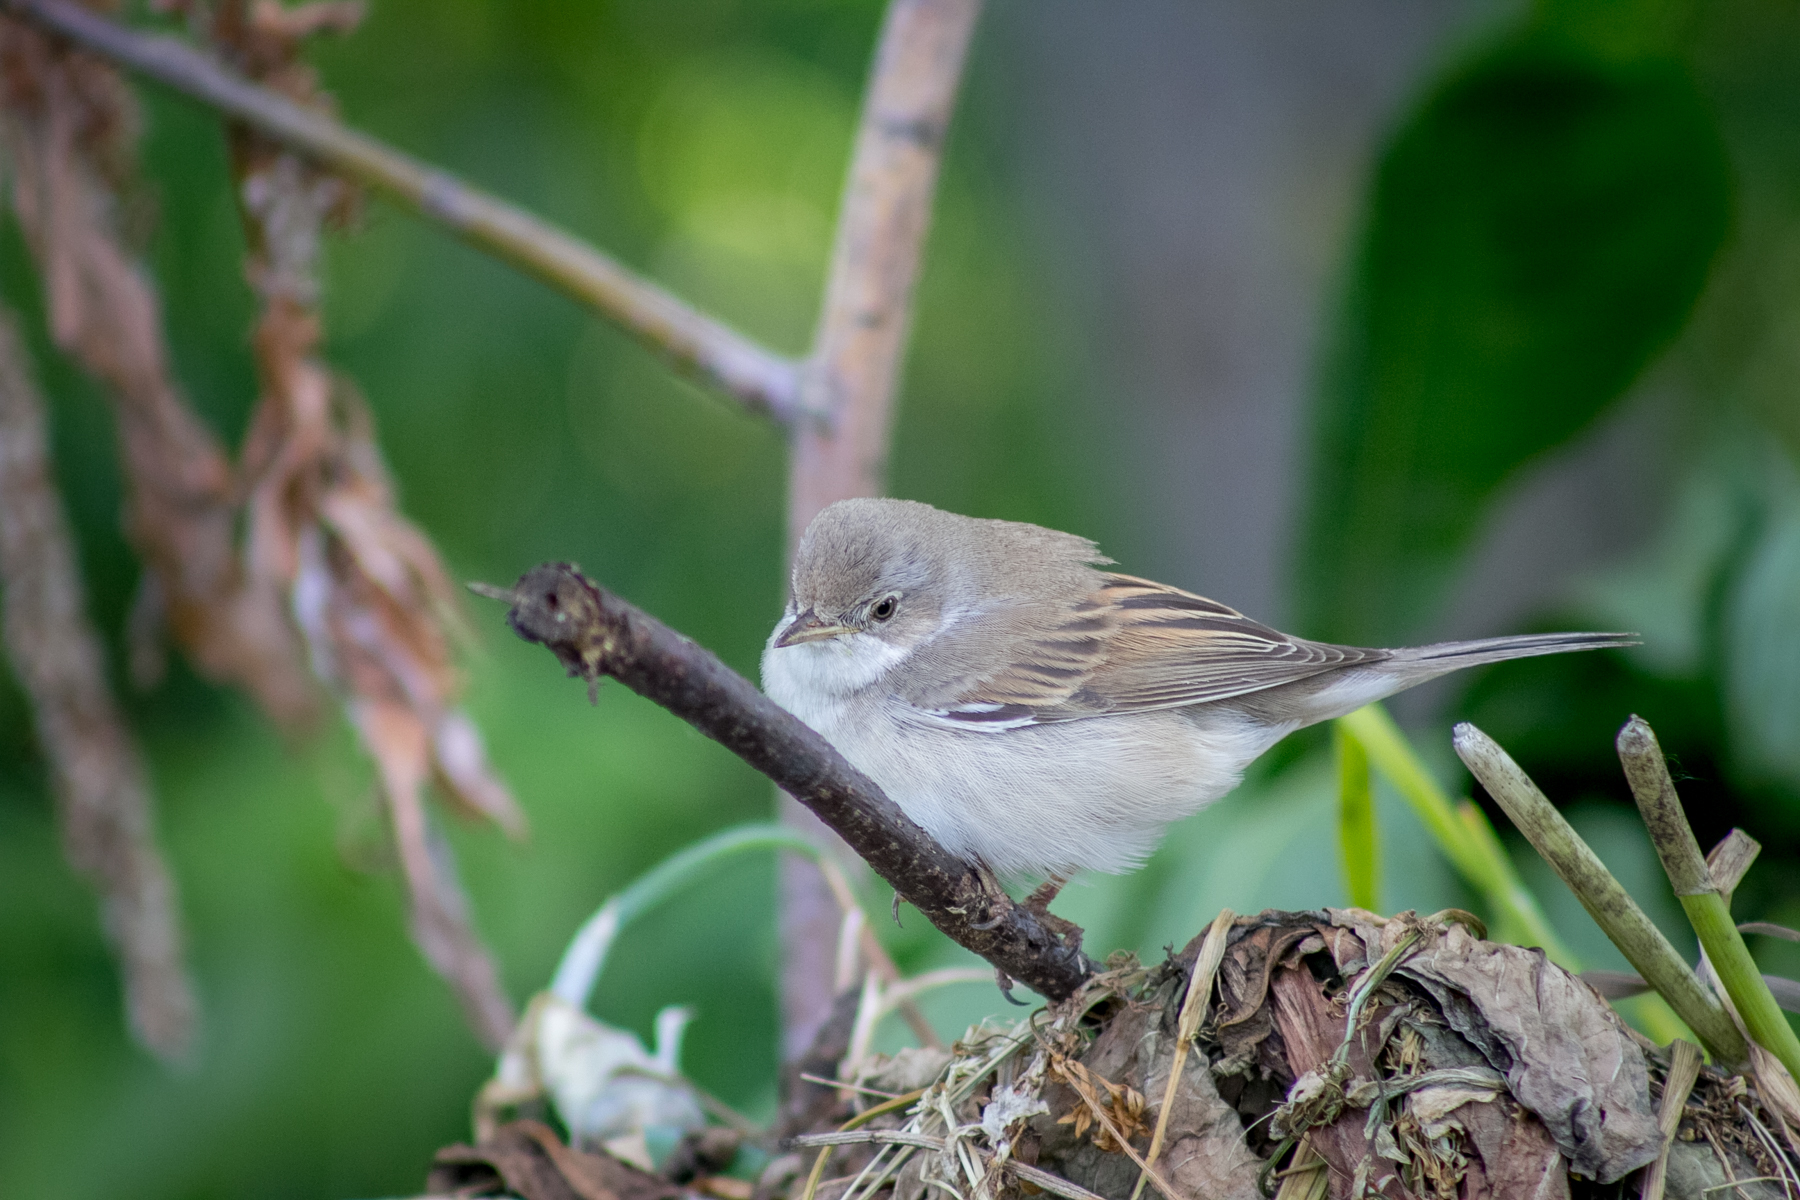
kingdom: Animalia
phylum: Chordata
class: Aves
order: Passeriformes
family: Sylviidae
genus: Sylvia
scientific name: Sylvia communis
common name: Common whitethroat
